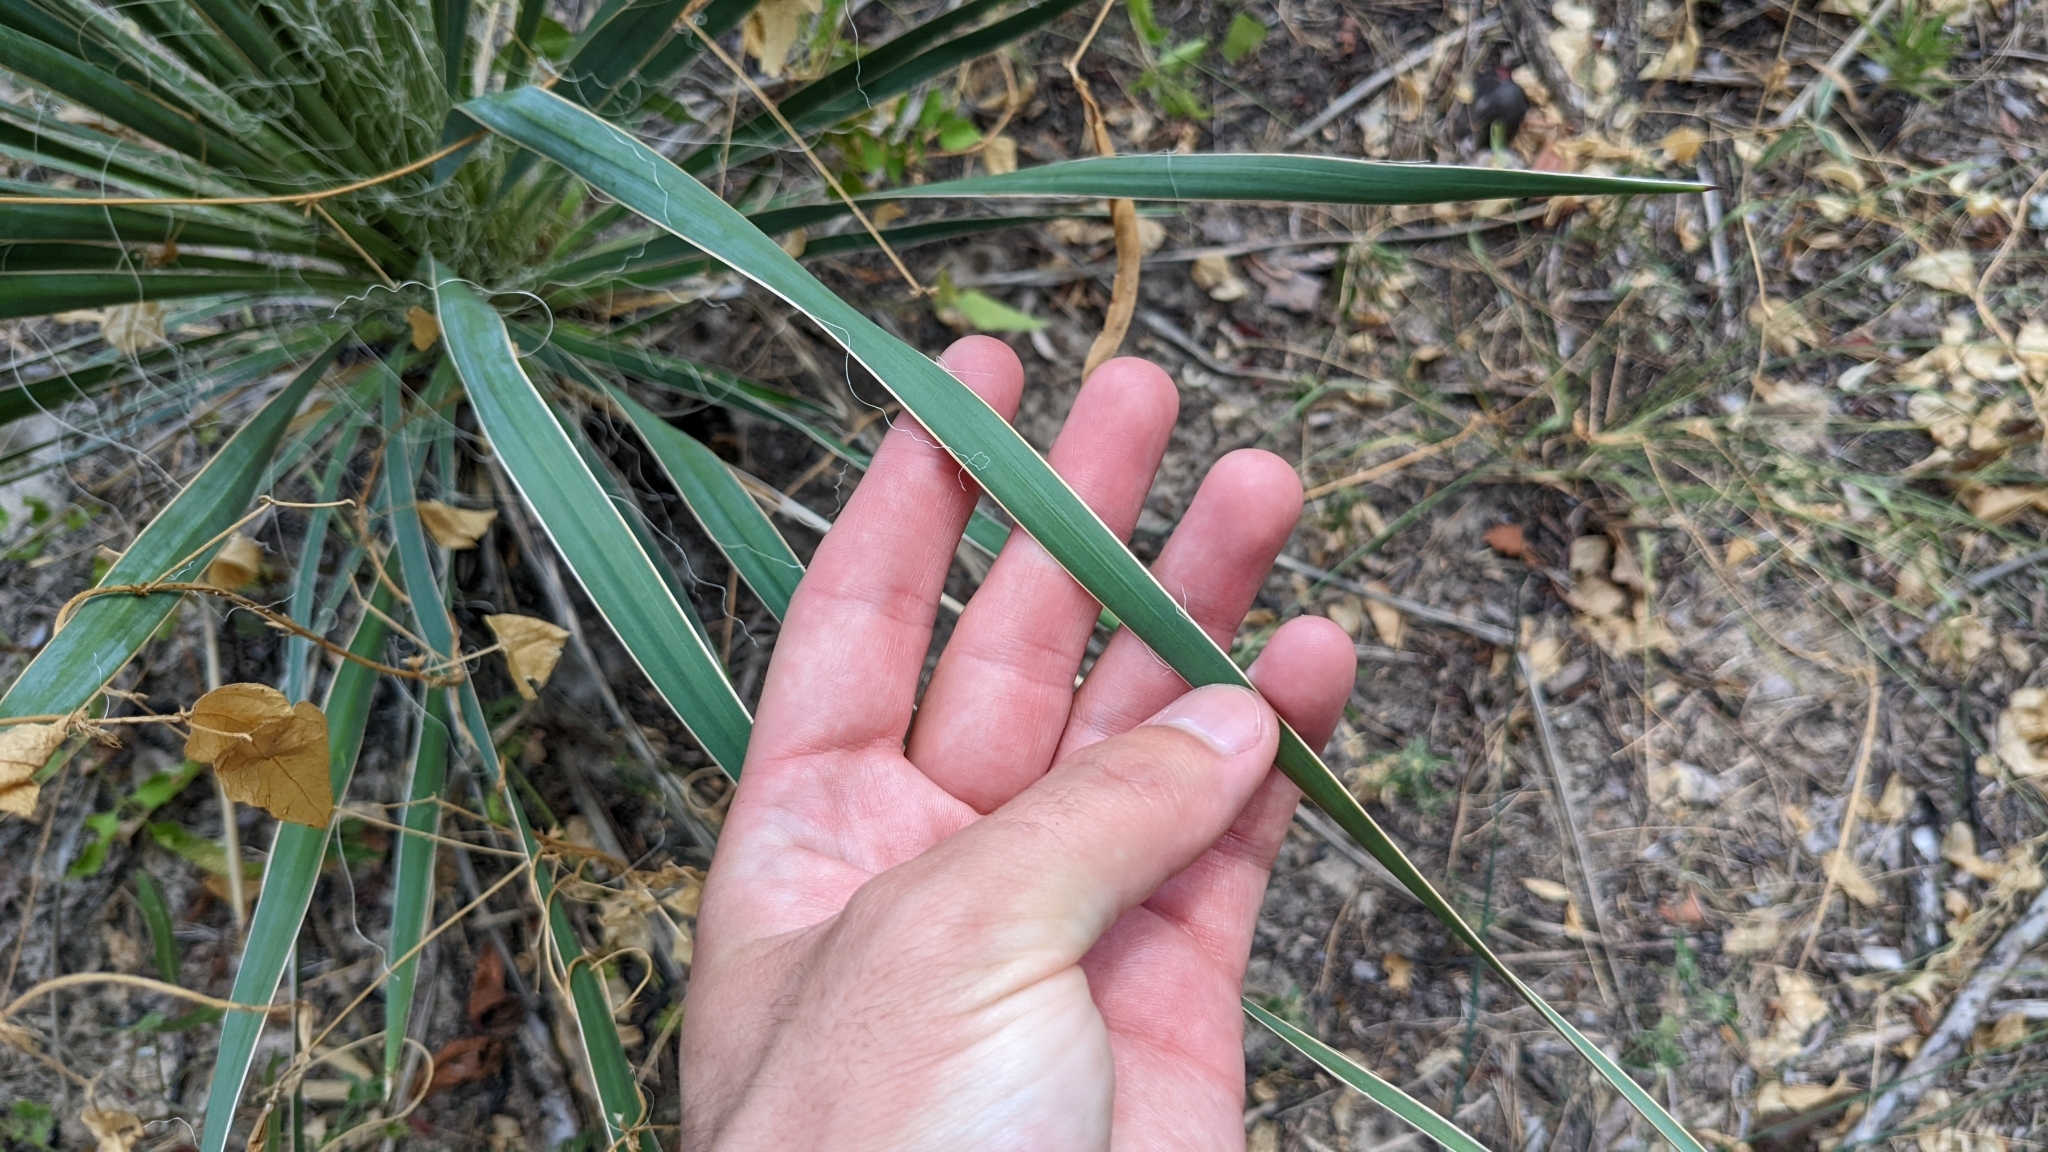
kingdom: Plantae
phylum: Tracheophyta
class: Liliopsida
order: Asparagales
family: Asparagaceae
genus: Yucca
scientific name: Yucca flaccida
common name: Adam's-needle
